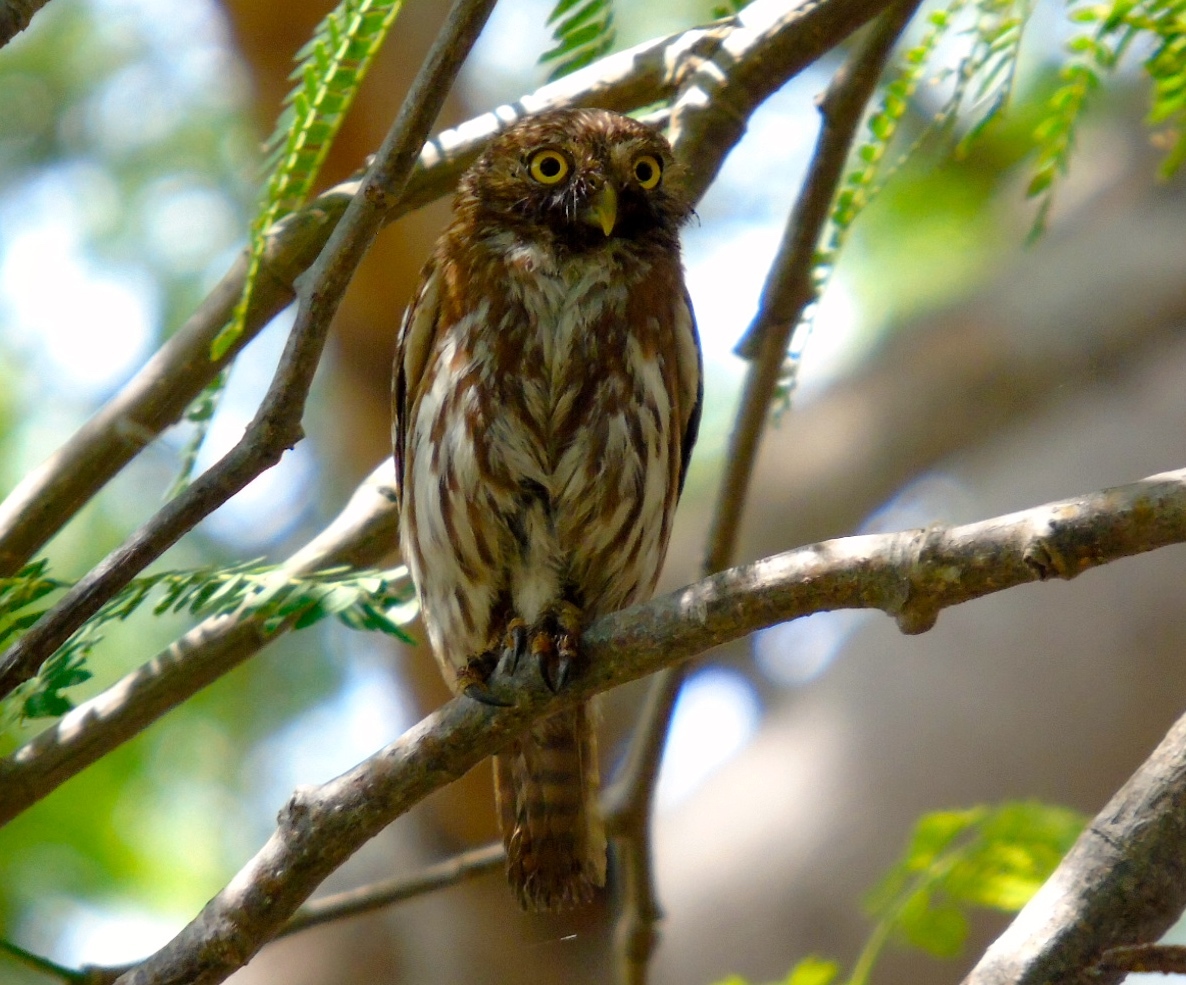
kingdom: Animalia
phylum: Chordata
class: Aves
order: Strigiformes
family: Strigidae
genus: Glaucidium
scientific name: Glaucidium brasilianum
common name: Ferruginous pygmy-owl
